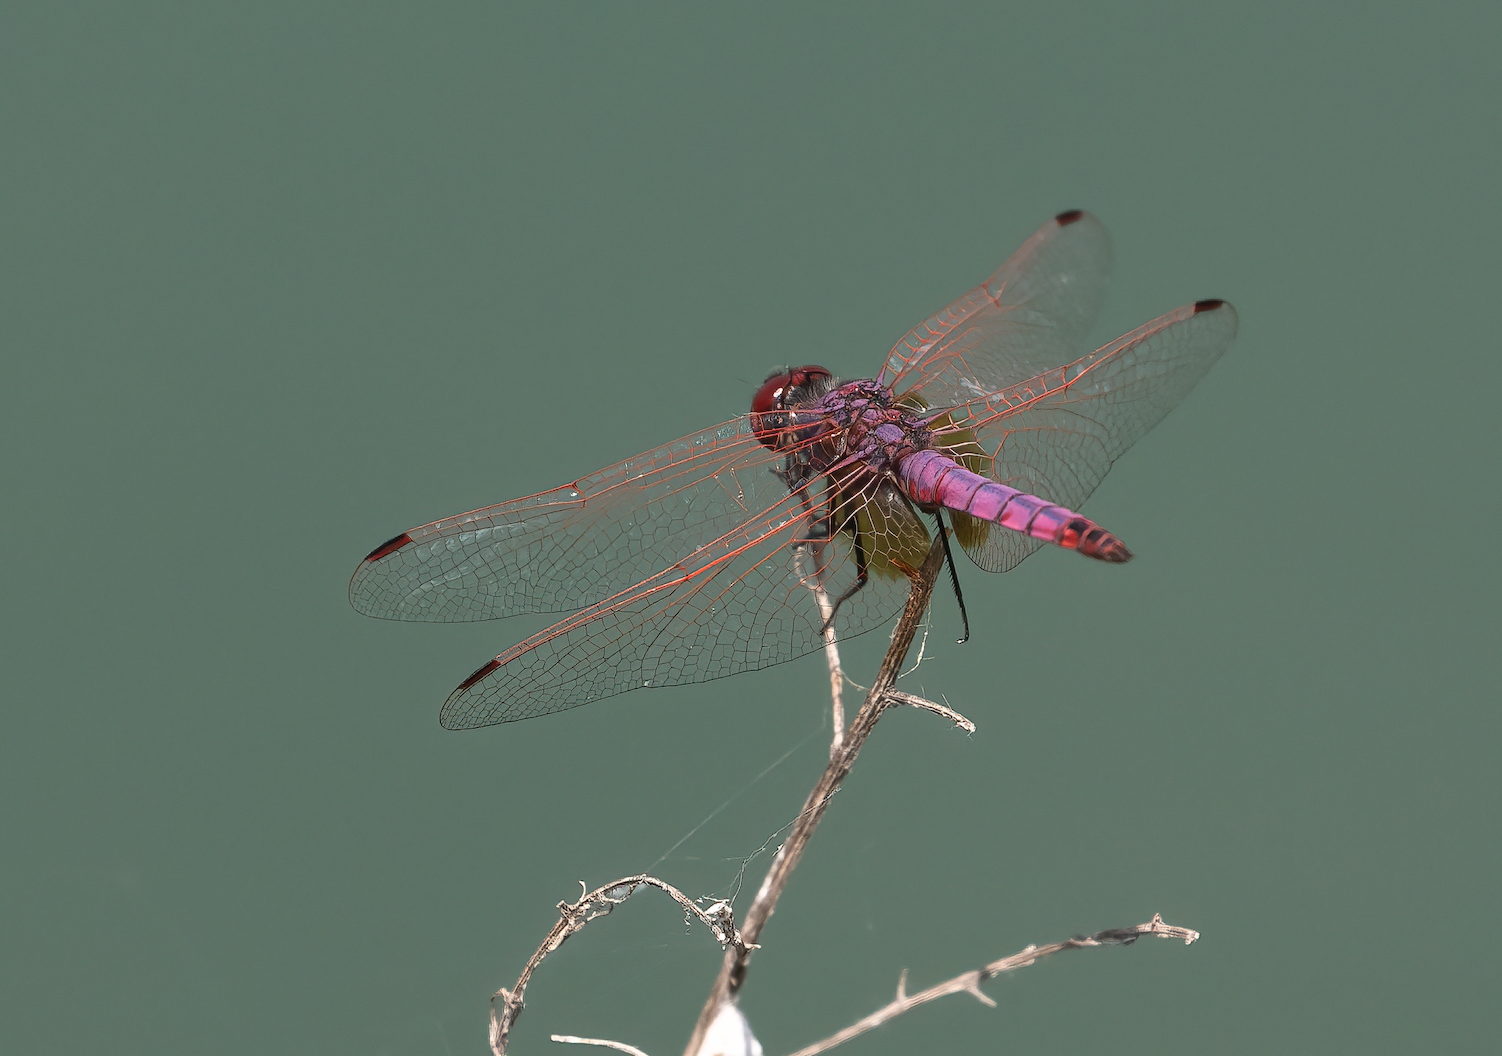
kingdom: Animalia
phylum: Arthropoda
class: Insecta
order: Odonata
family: Libellulidae
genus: Trithemis
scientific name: Trithemis annulata
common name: Violet dropwing
